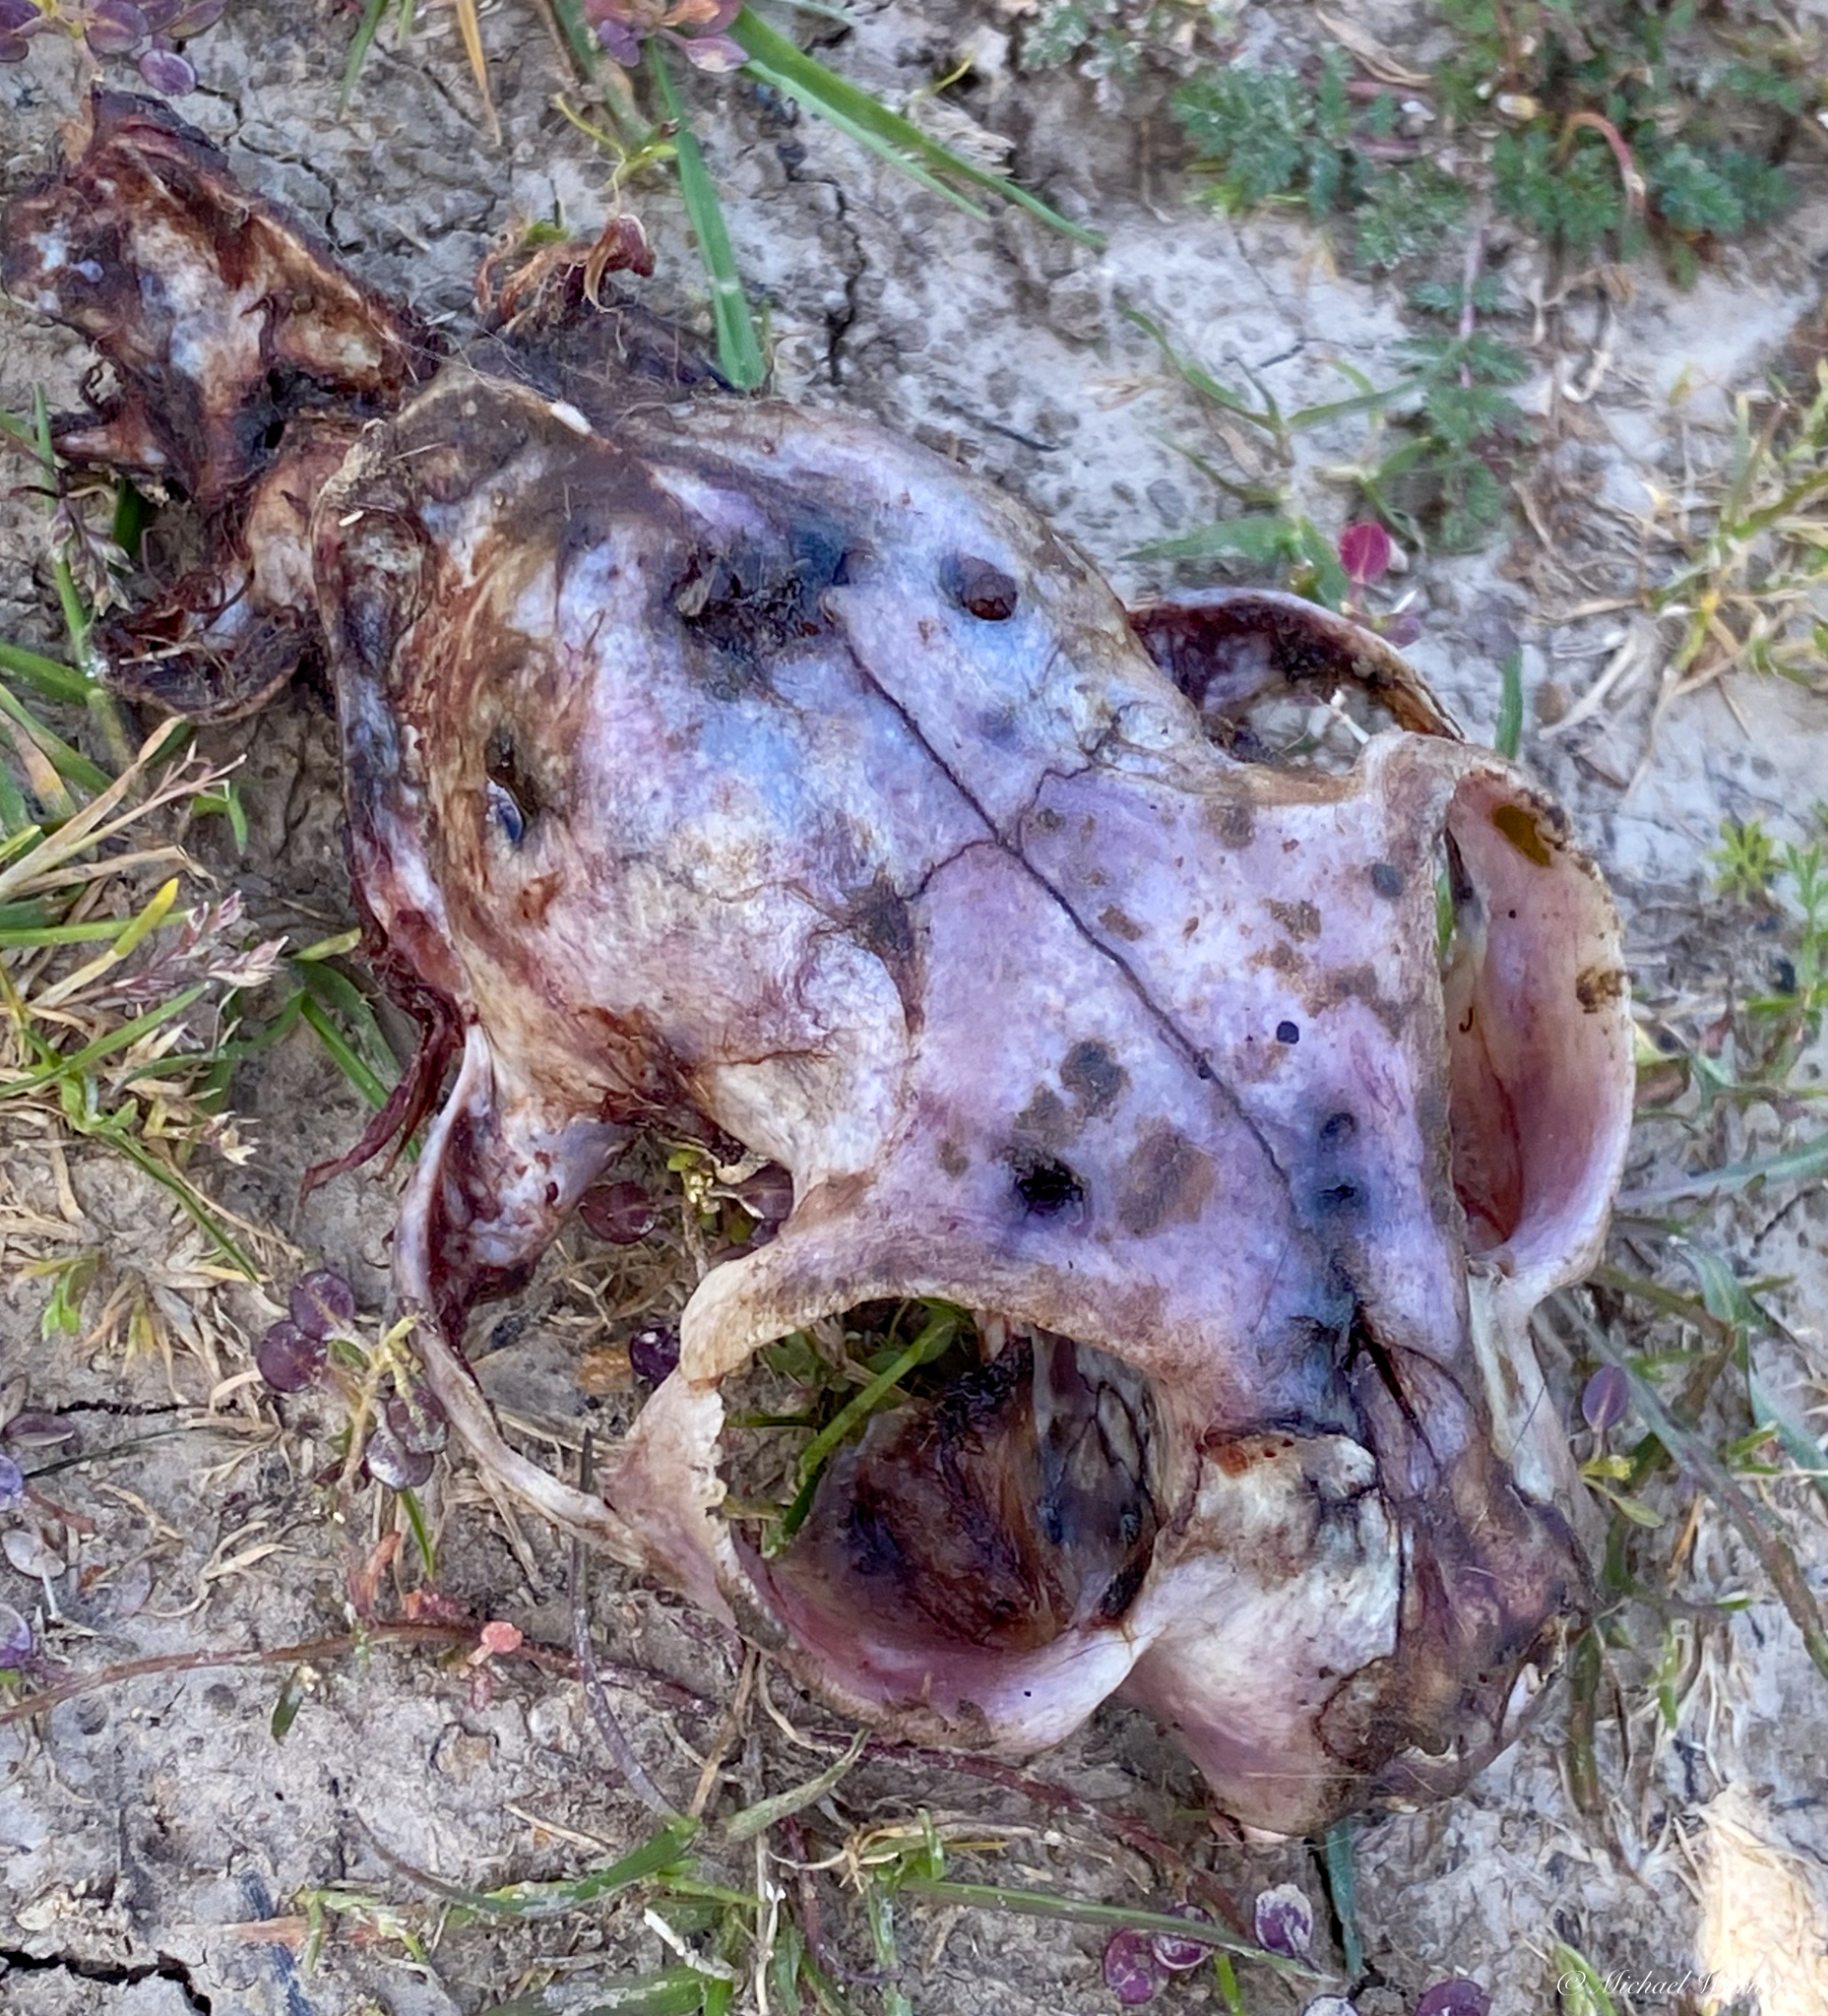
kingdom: Animalia
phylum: Chordata
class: Mammalia
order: Carnivora
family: Felidae
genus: Felis
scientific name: Felis catus
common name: Domestic cat
